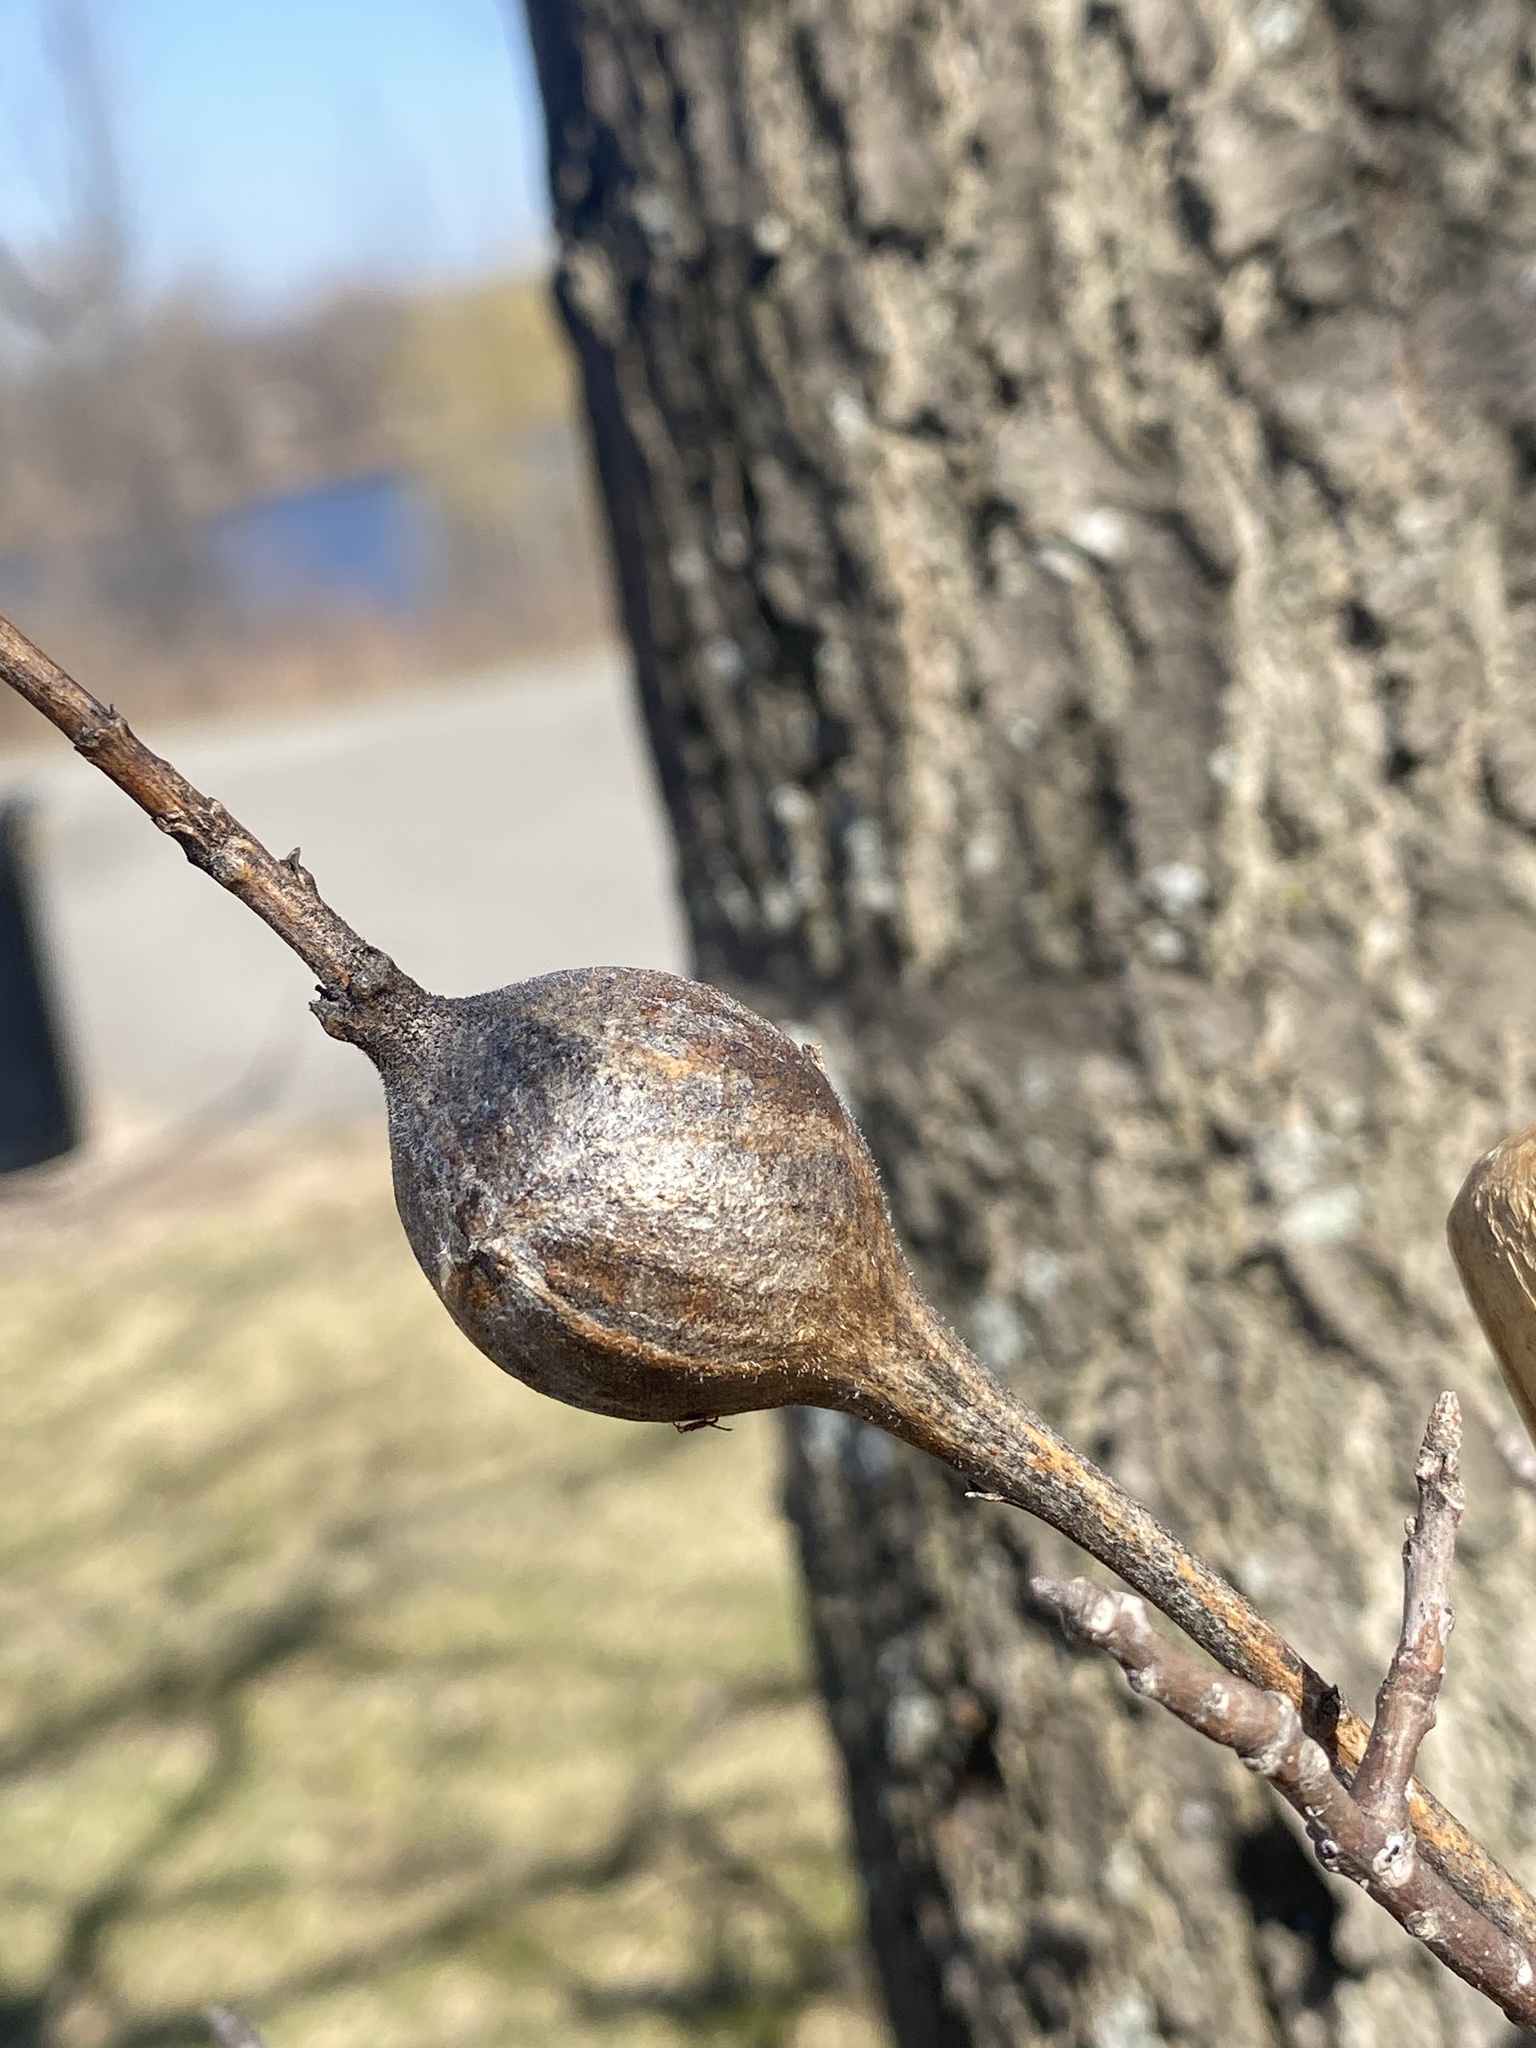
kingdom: Animalia
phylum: Arthropoda
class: Insecta
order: Diptera
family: Tephritidae
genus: Eurosta
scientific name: Eurosta solidaginis
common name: Goldenrod gall fly
